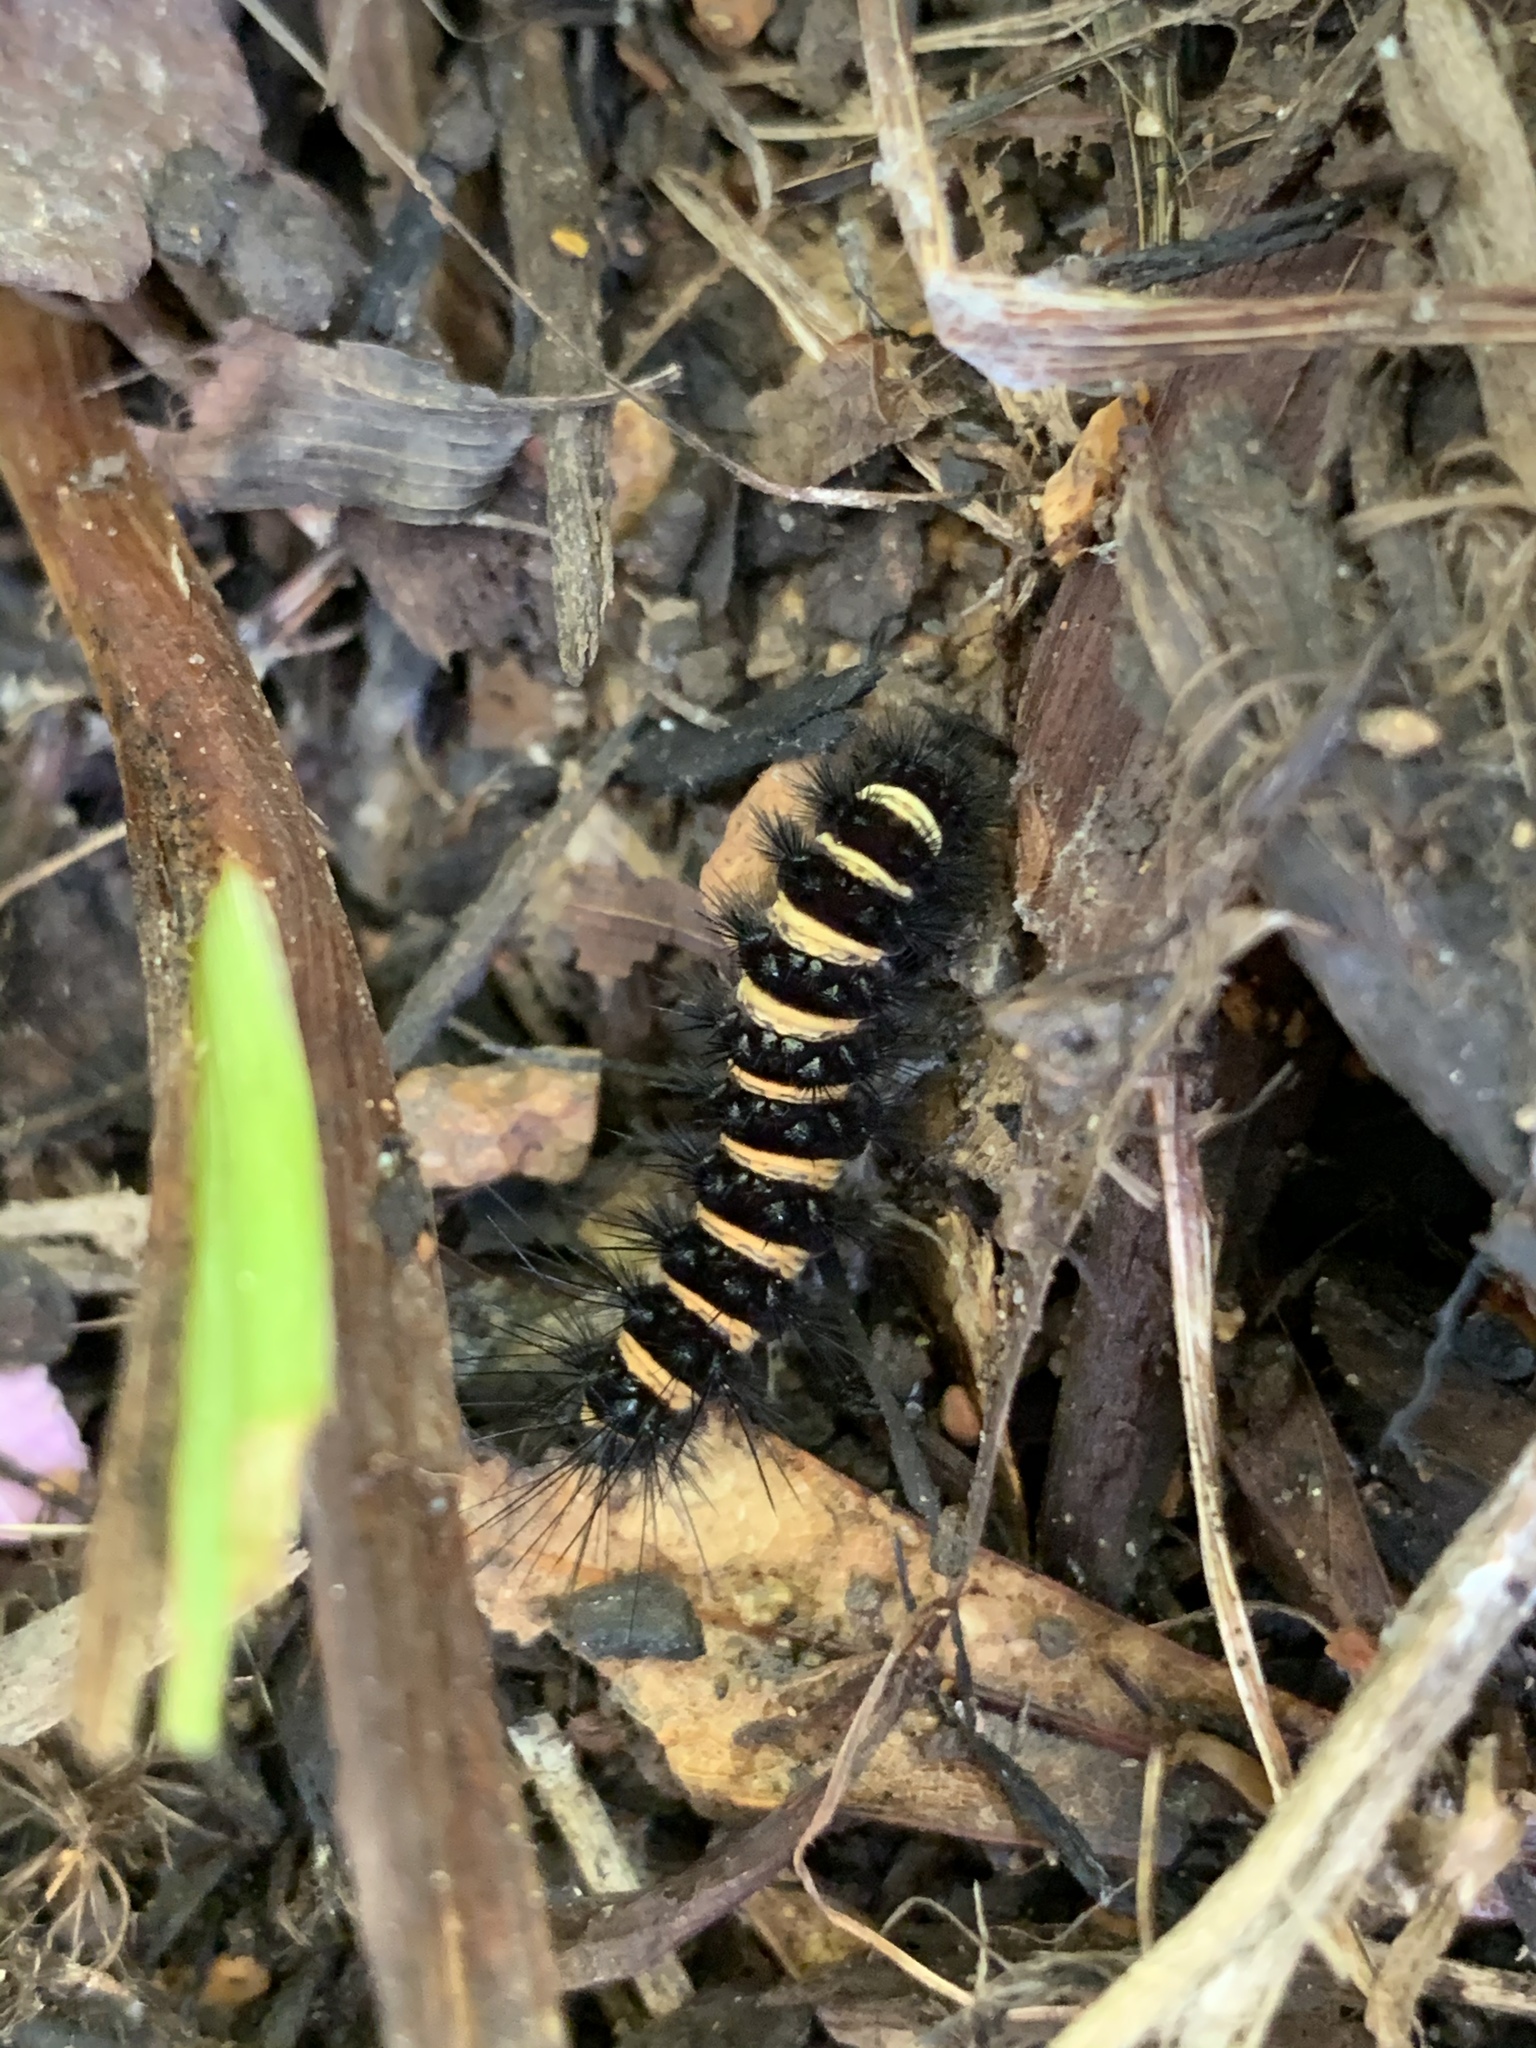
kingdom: Animalia
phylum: Arthropoda
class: Insecta
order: Lepidoptera
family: Erebidae
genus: Spilosoma
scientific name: Spilosoma congrua
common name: Agreeable tiger moth
